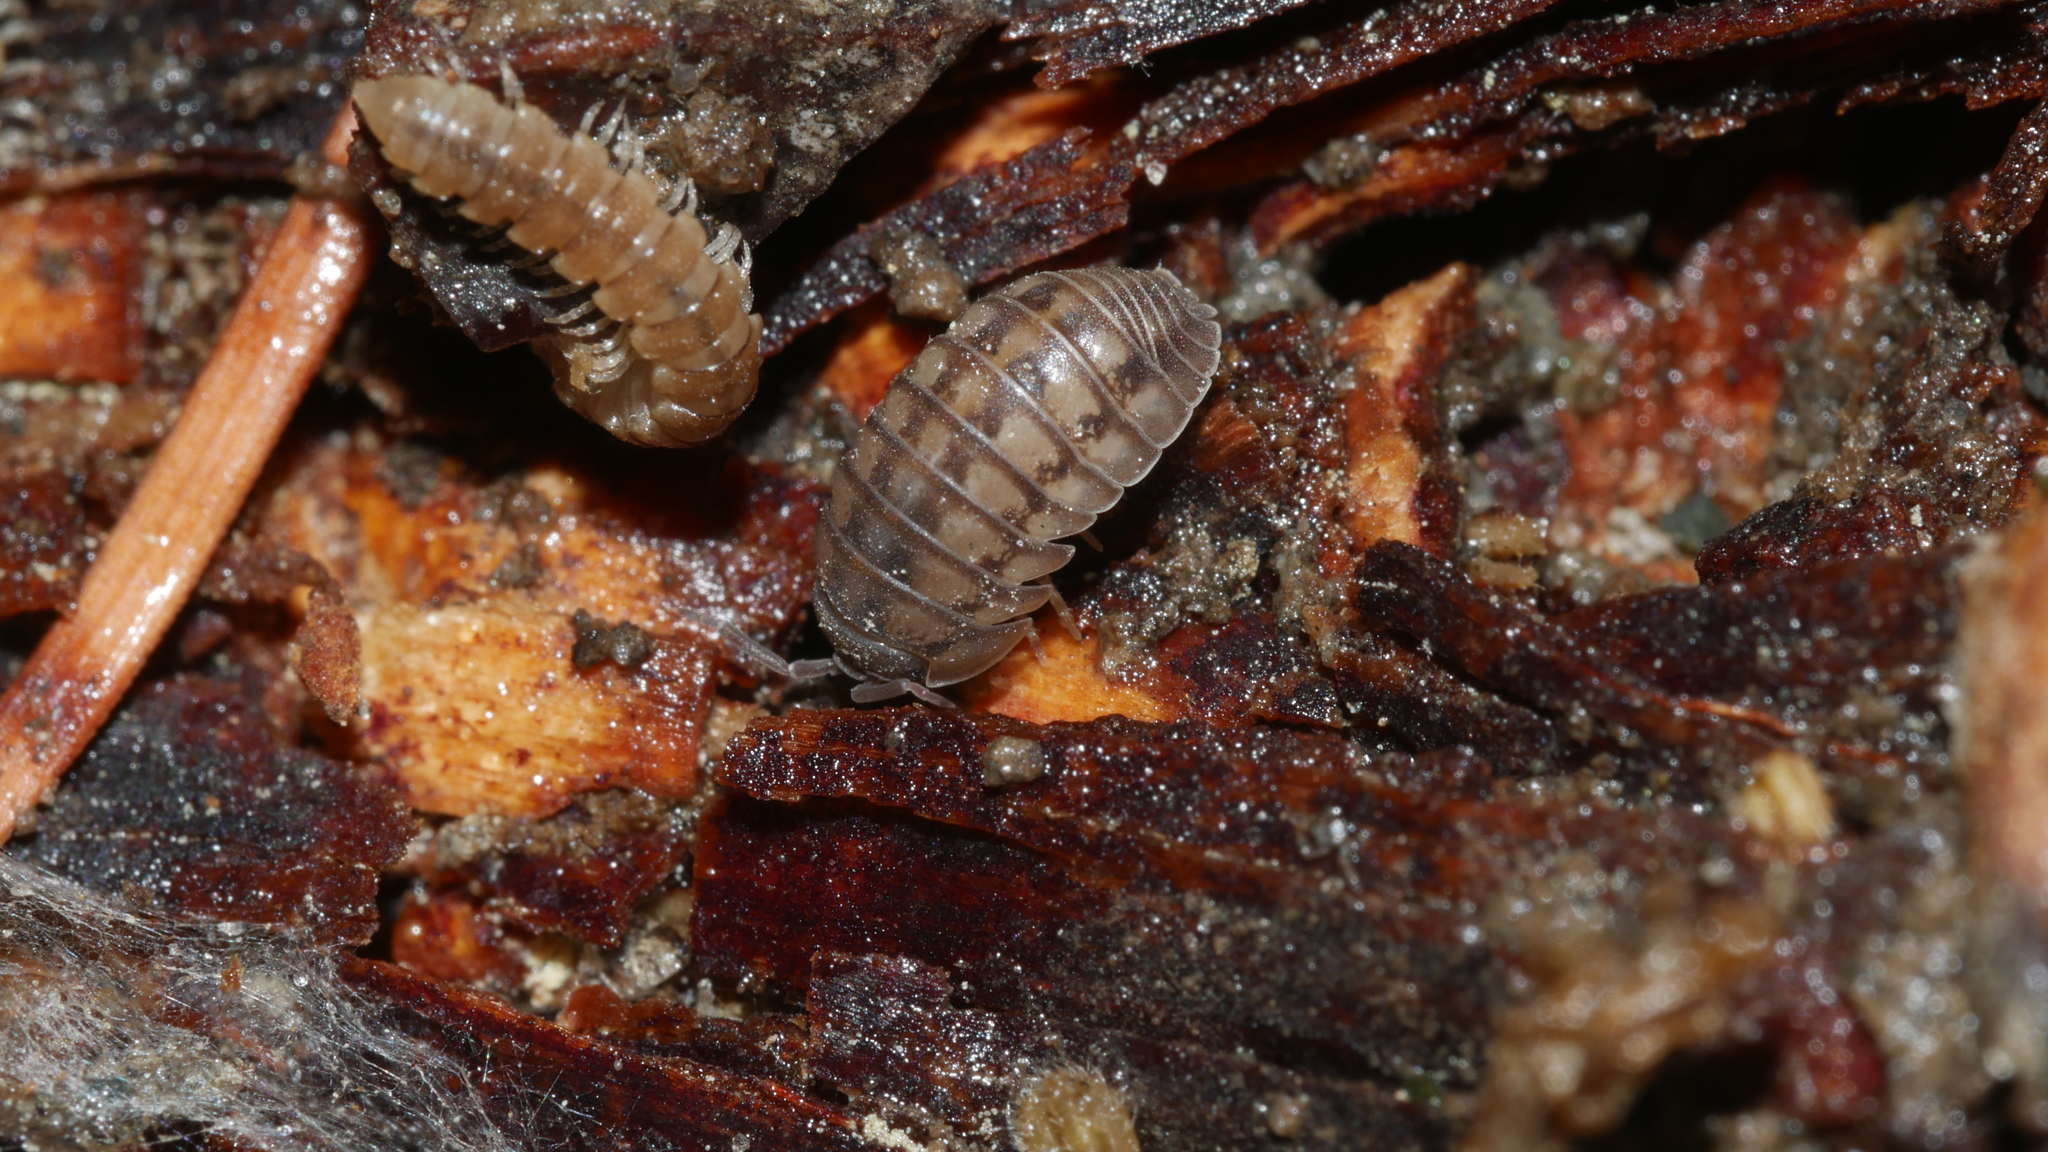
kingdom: Animalia
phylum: Arthropoda
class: Malacostraca
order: Isopoda
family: Armadillidiidae
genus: Armadillidium
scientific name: Armadillidium nasatum
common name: Isopod
